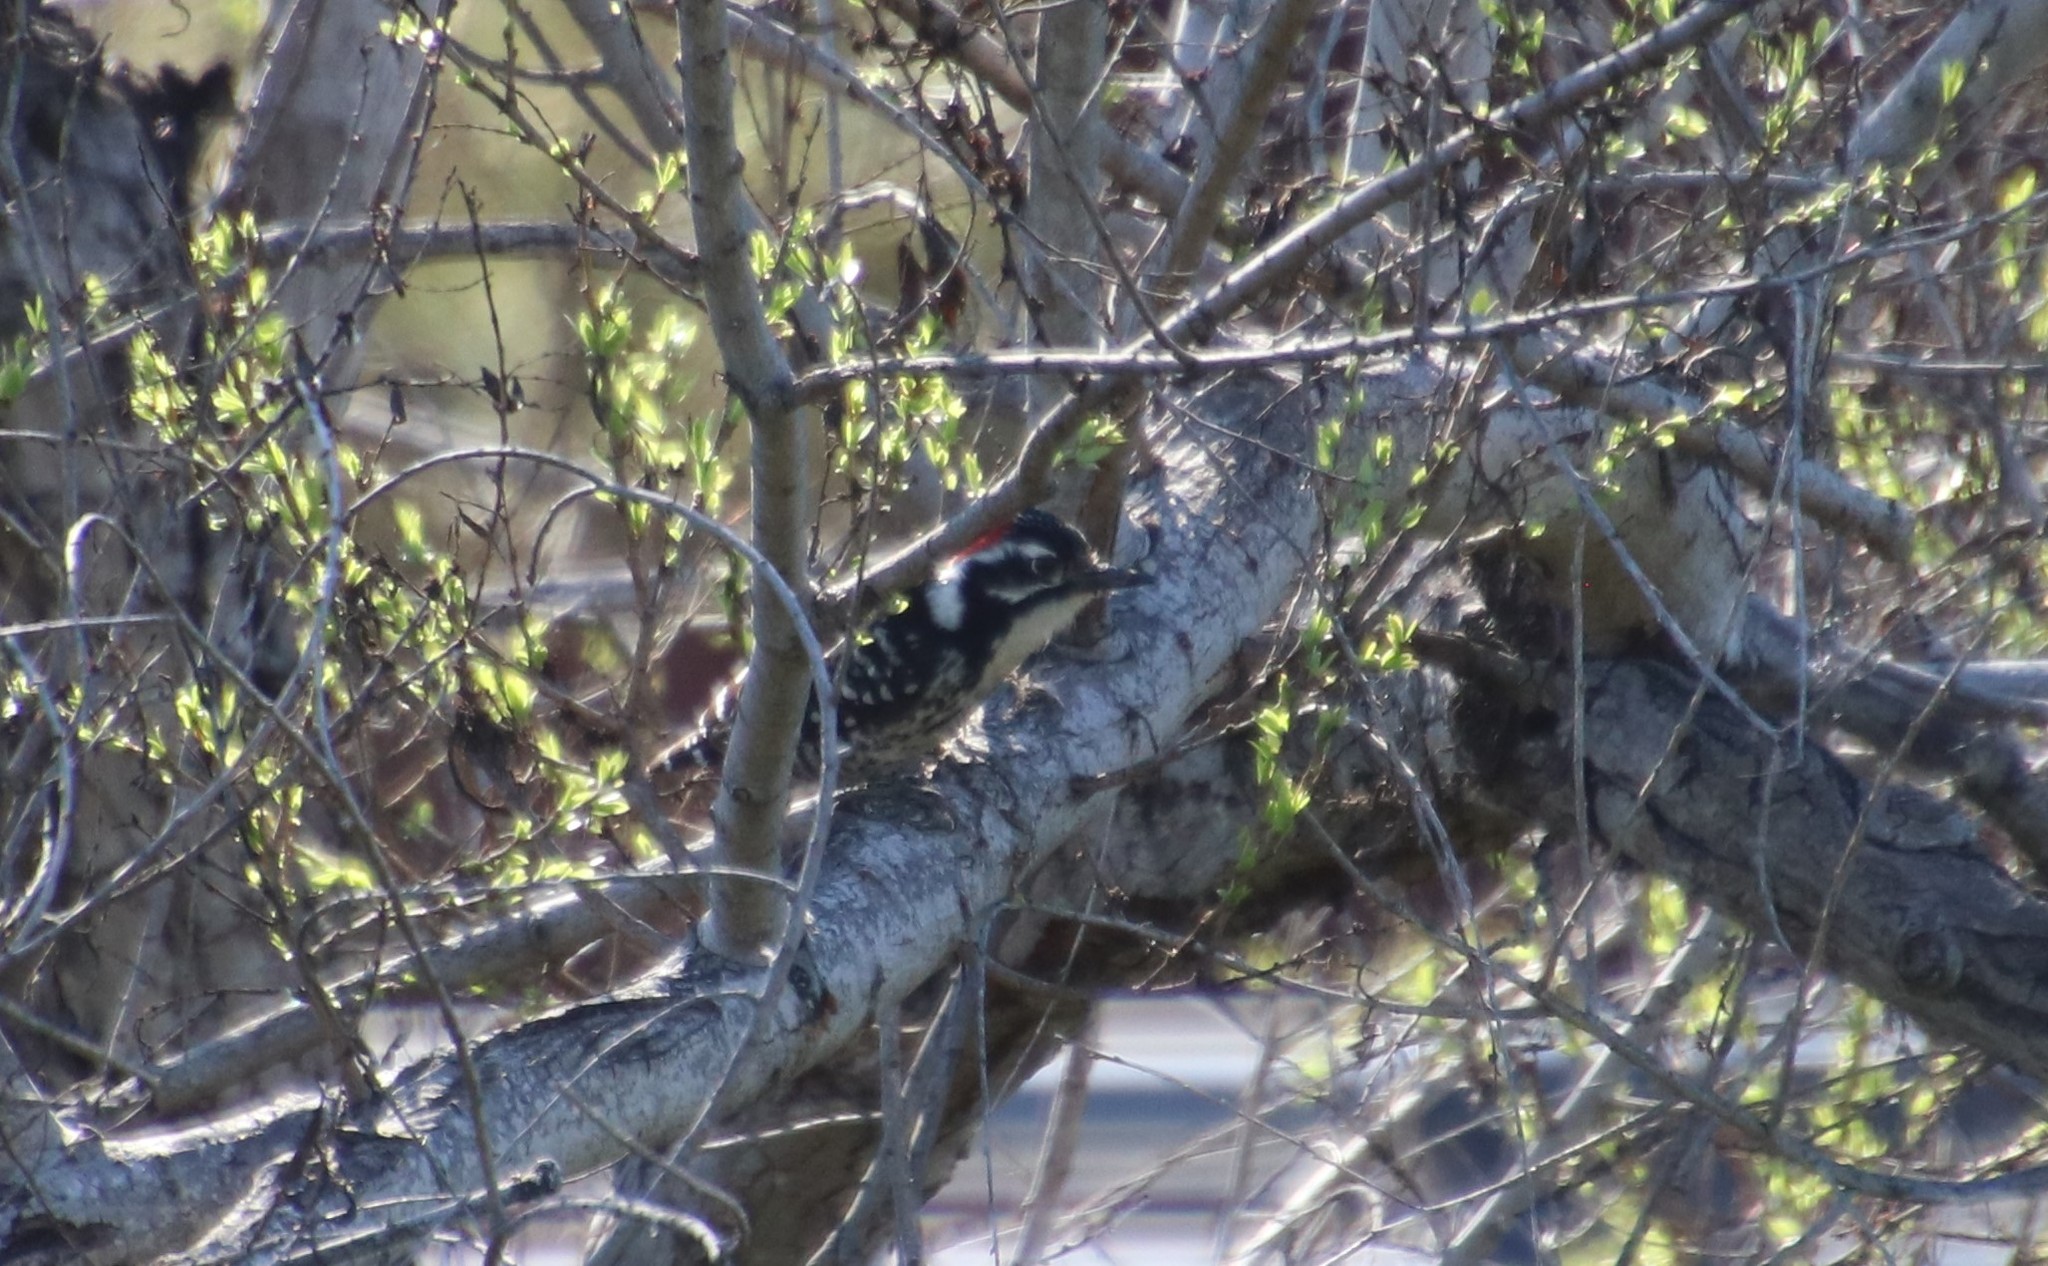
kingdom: Animalia
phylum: Chordata
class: Aves
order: Piciformes
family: Picidae
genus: Dryobates
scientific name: Dryobates nuttallii
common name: Nuttall's woodpecker
